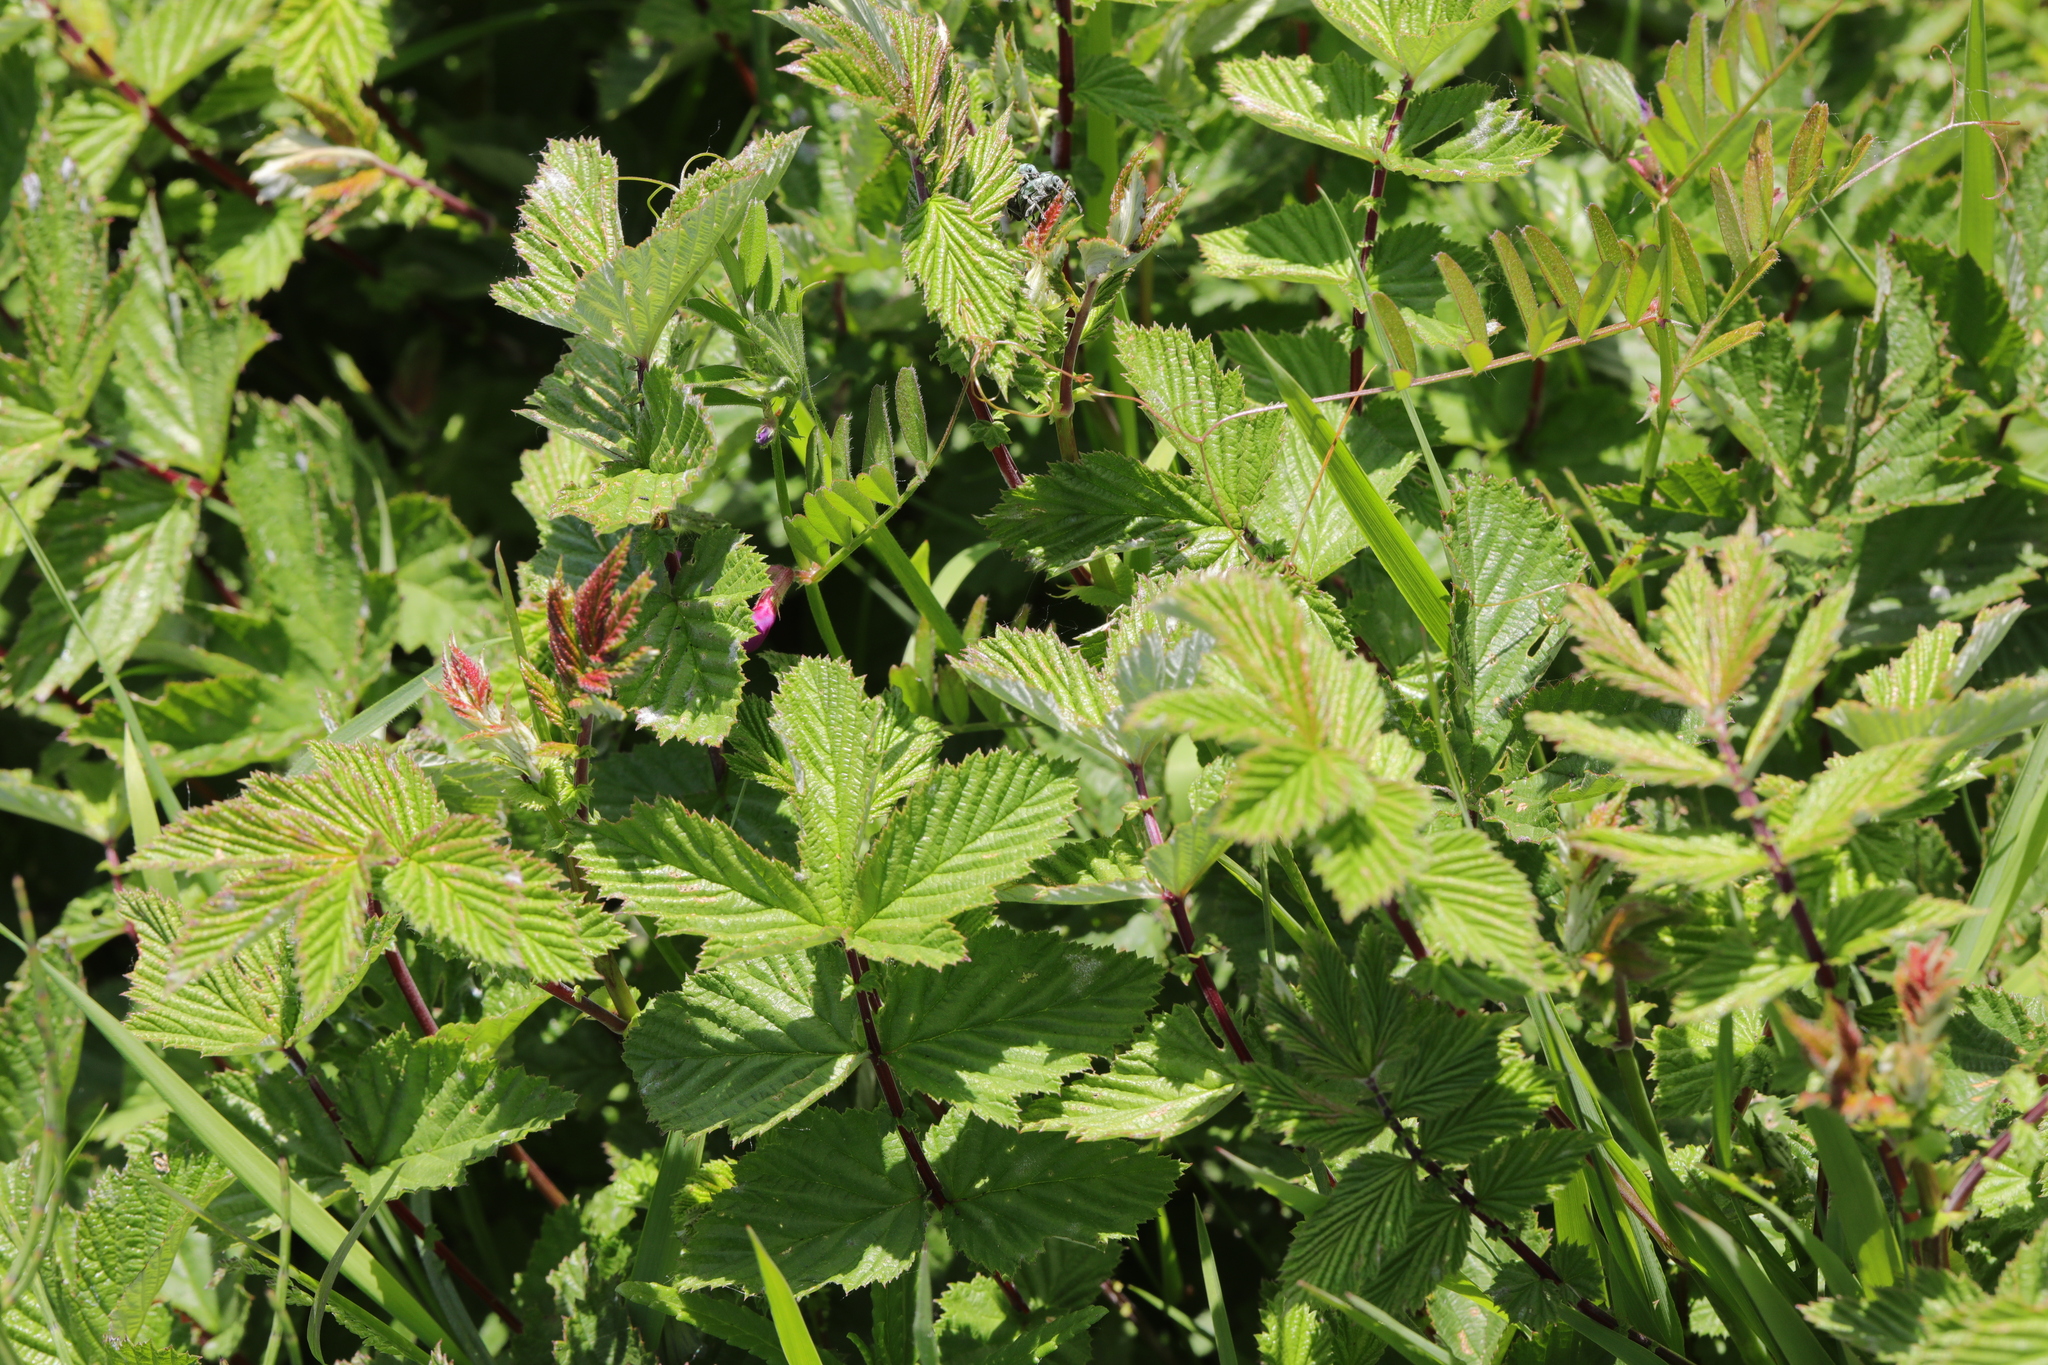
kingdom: Plantae
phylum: Tracheophyta
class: Magnoliopsida
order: Rosales
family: Rosaceae
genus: Filipendula
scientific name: Filipendula ulmaria
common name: Meadowsweet
